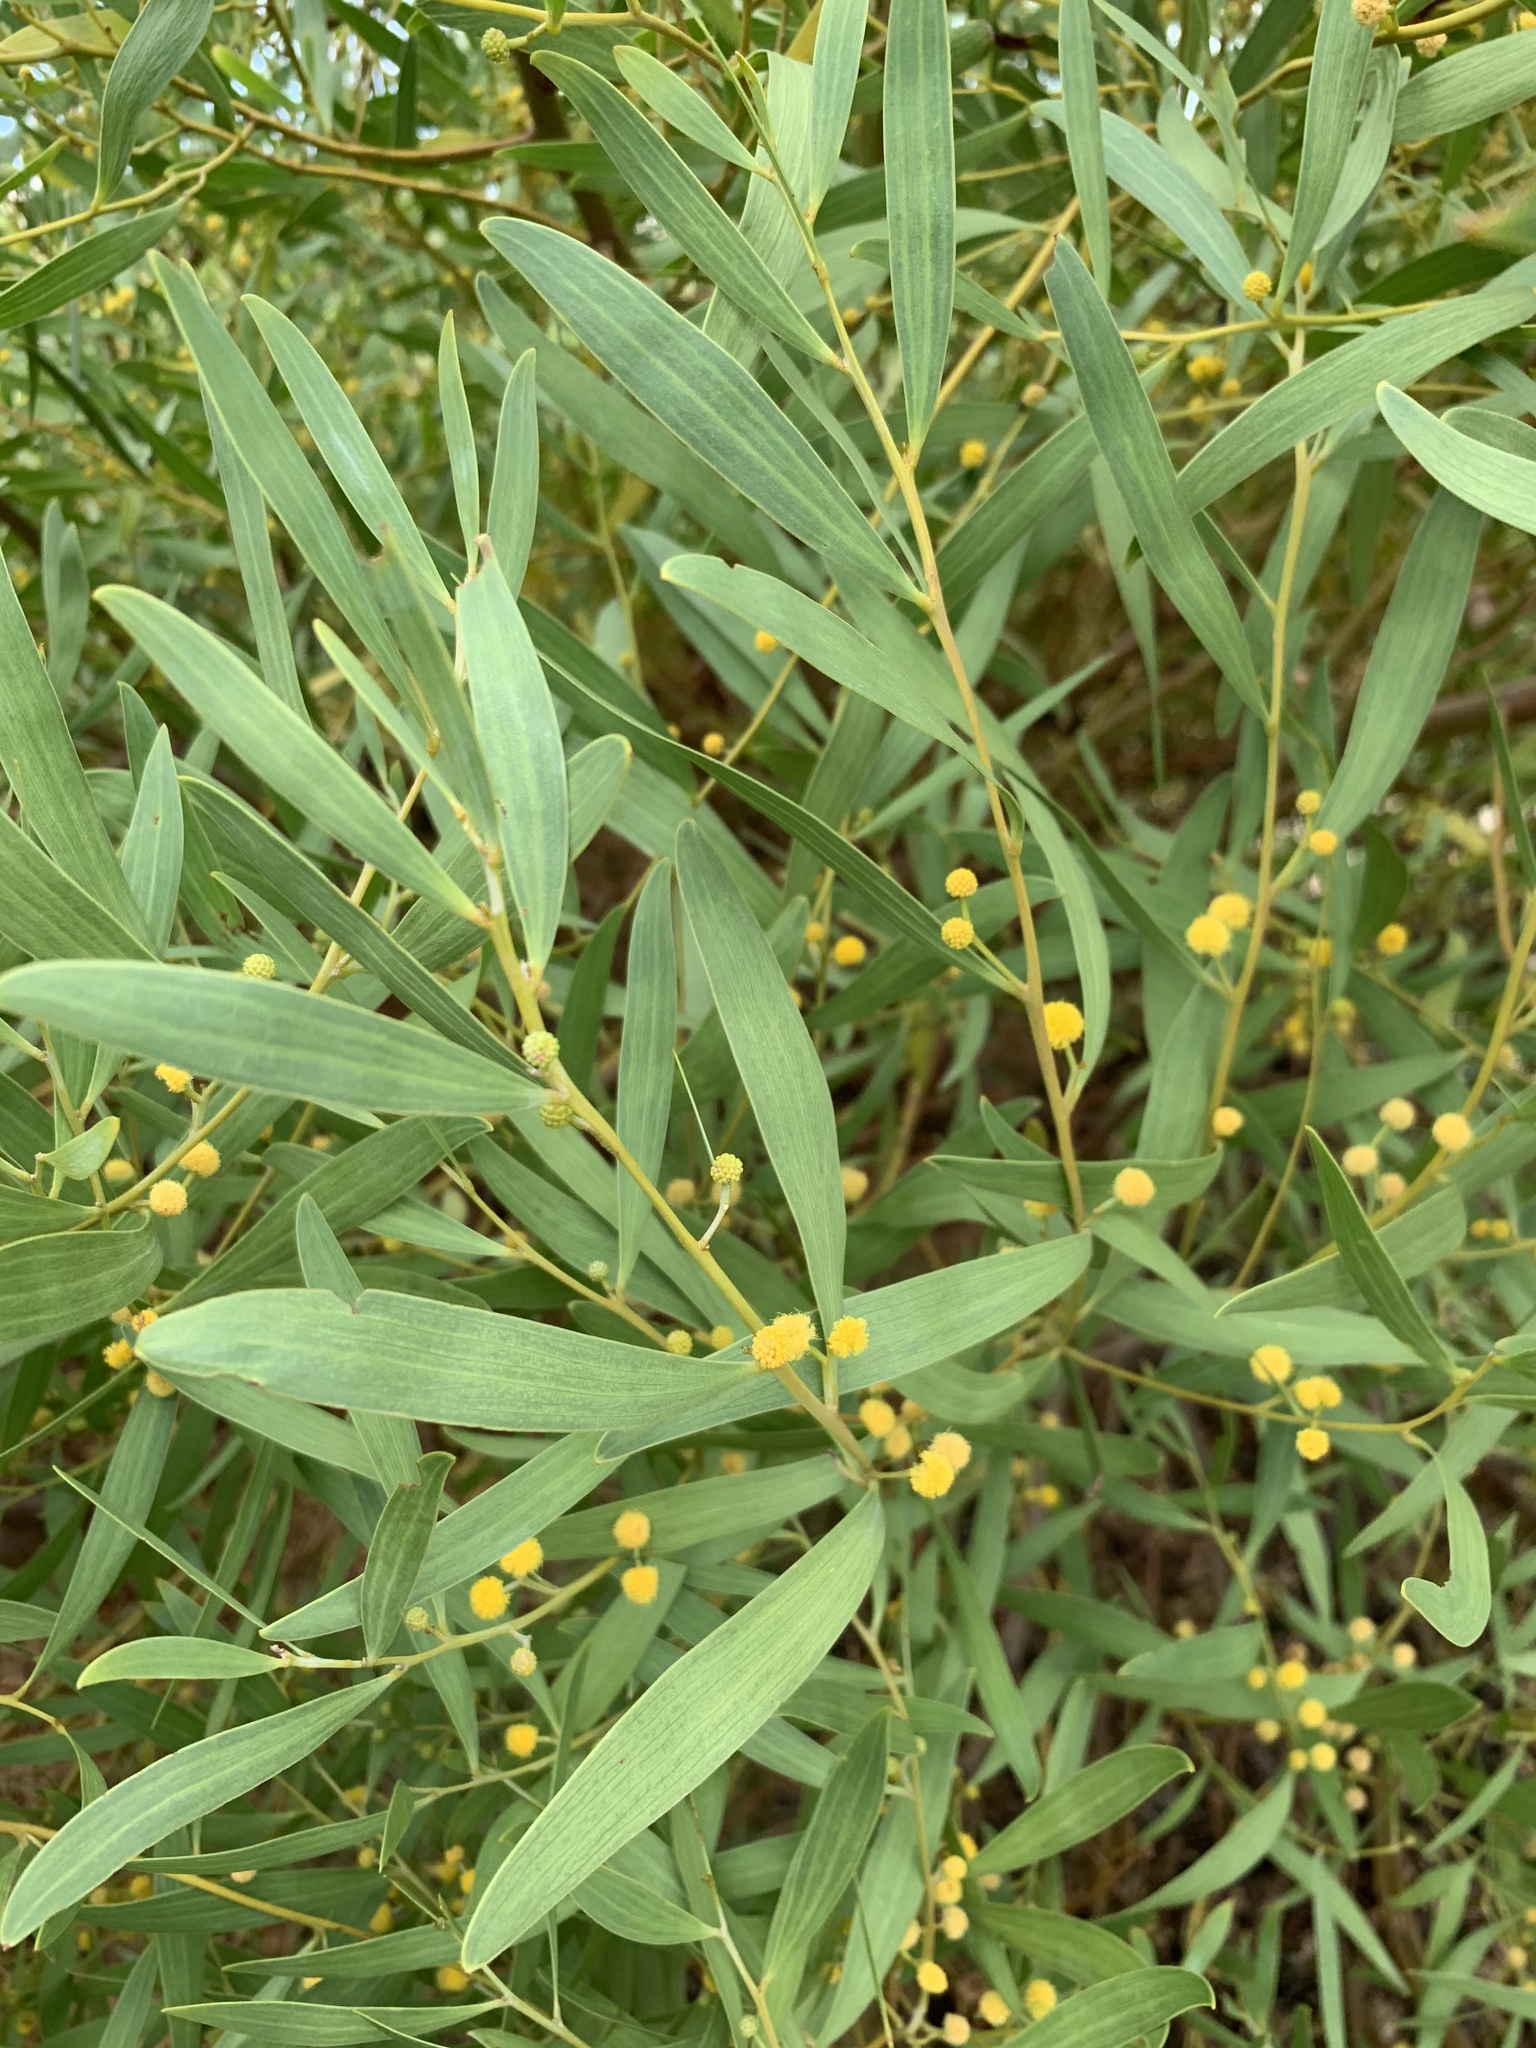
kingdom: Plantae
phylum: Tracheophyta
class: Magnoliopsida
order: Fabales
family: Fabaceae
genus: Acacia
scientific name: Acacia cyclops
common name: Coastal wattle
